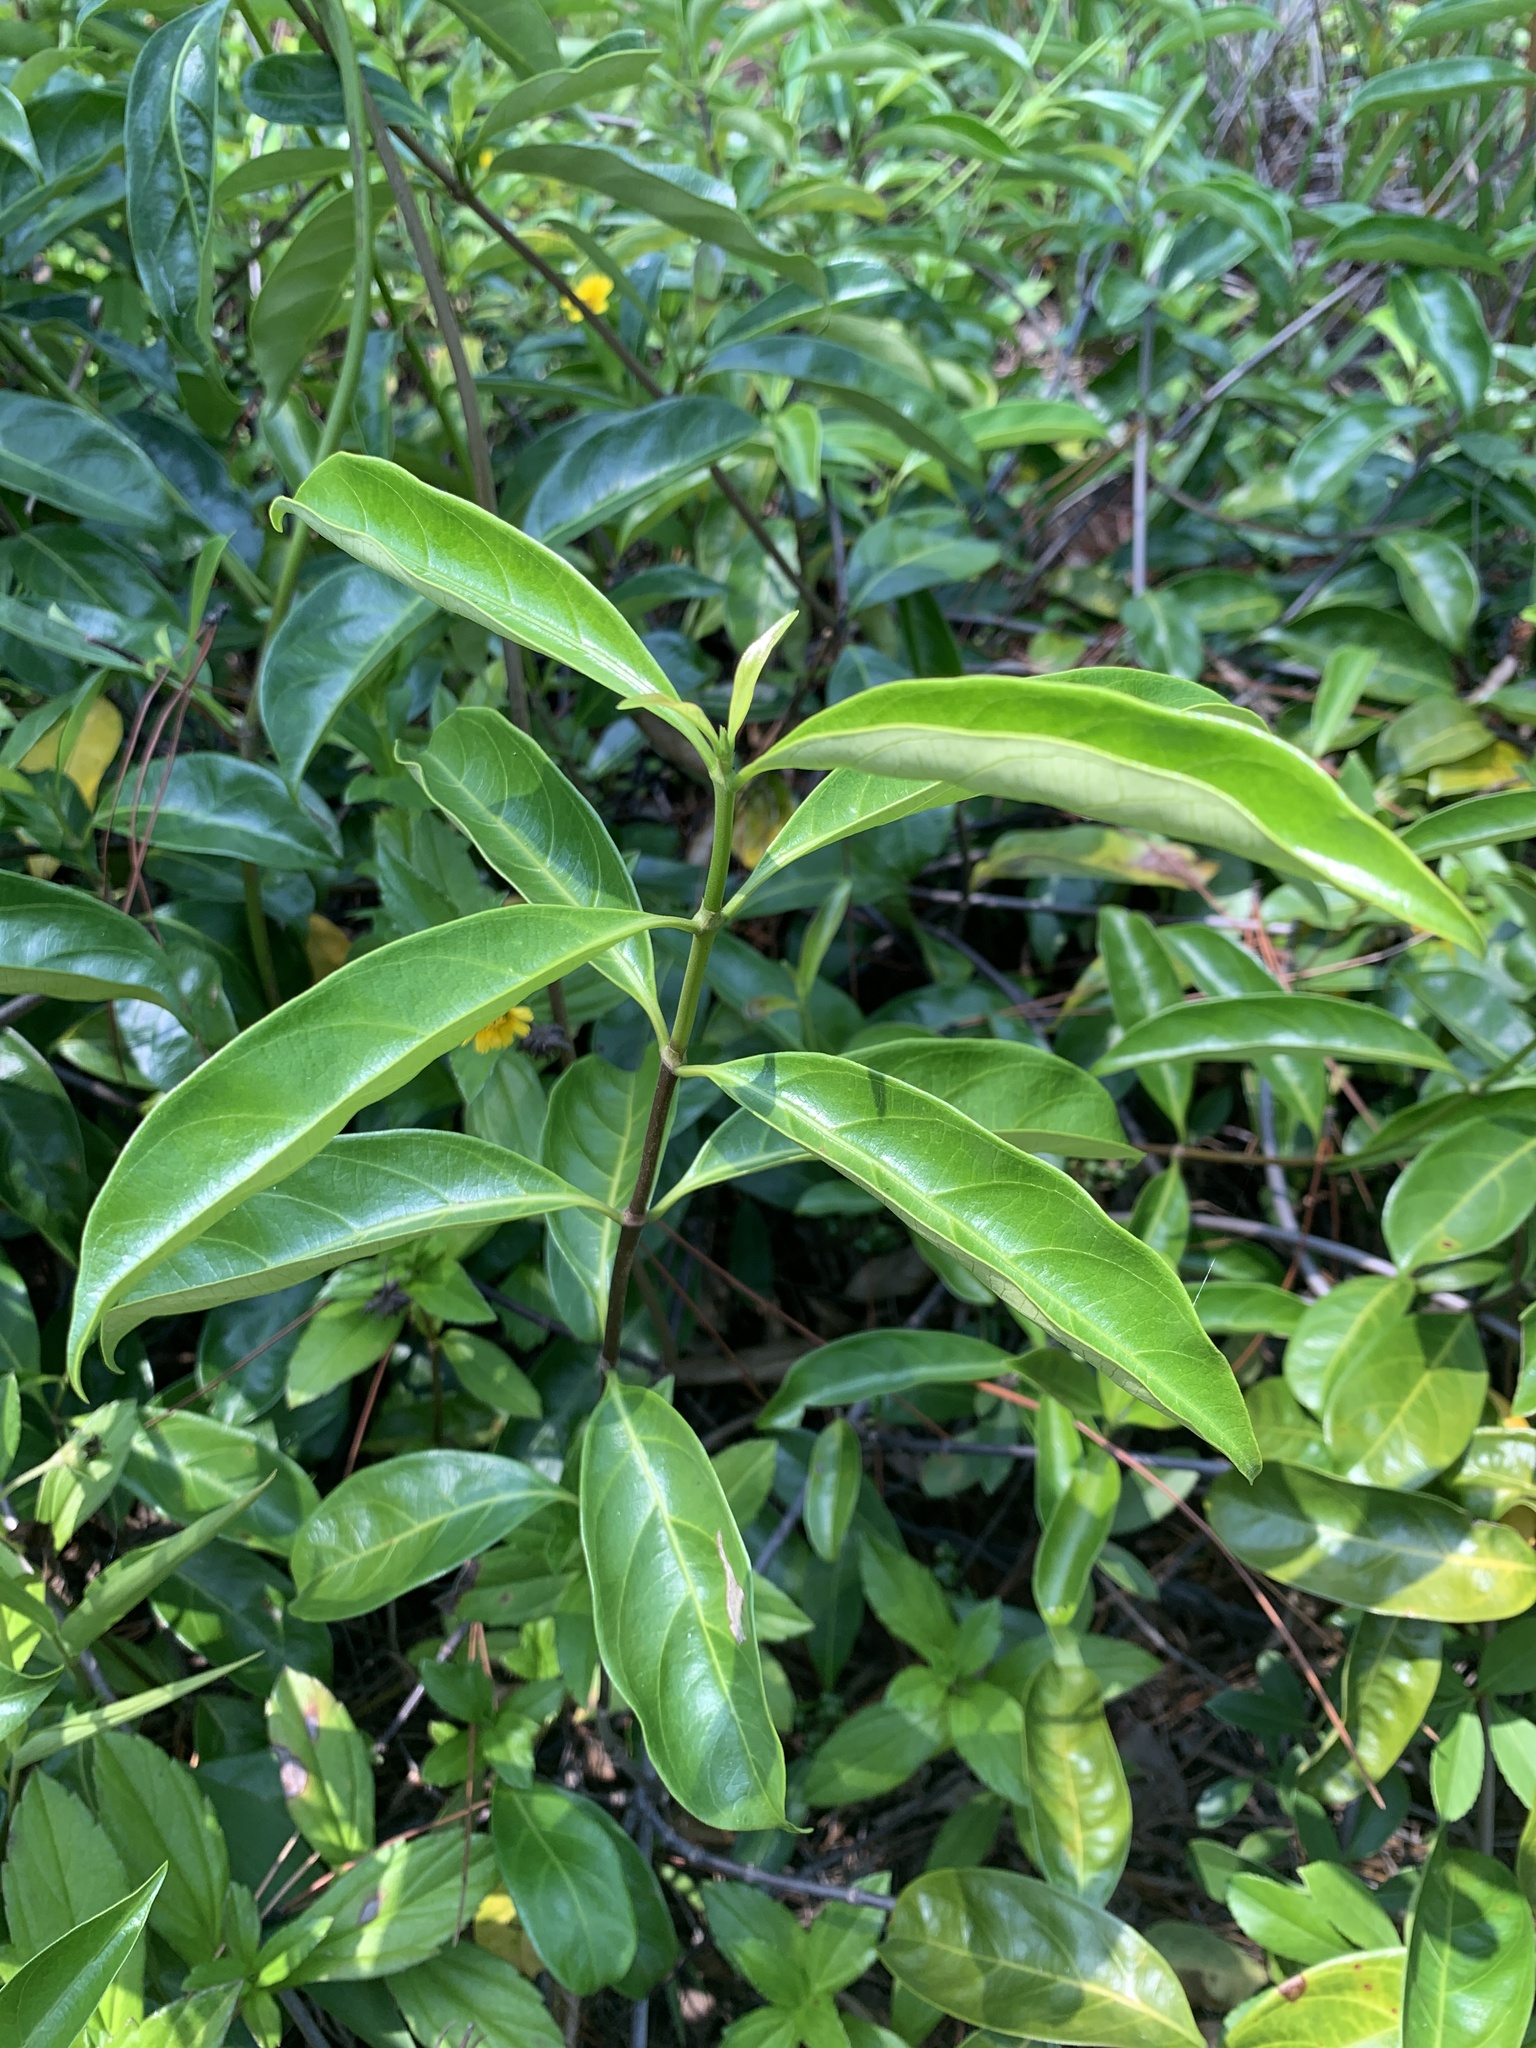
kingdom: Plantae
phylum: Tracheophyta
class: Magnoliopsida
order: Gentianales
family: Rubiaceae
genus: Gynochthodes
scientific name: Gynochthodes umbellata
